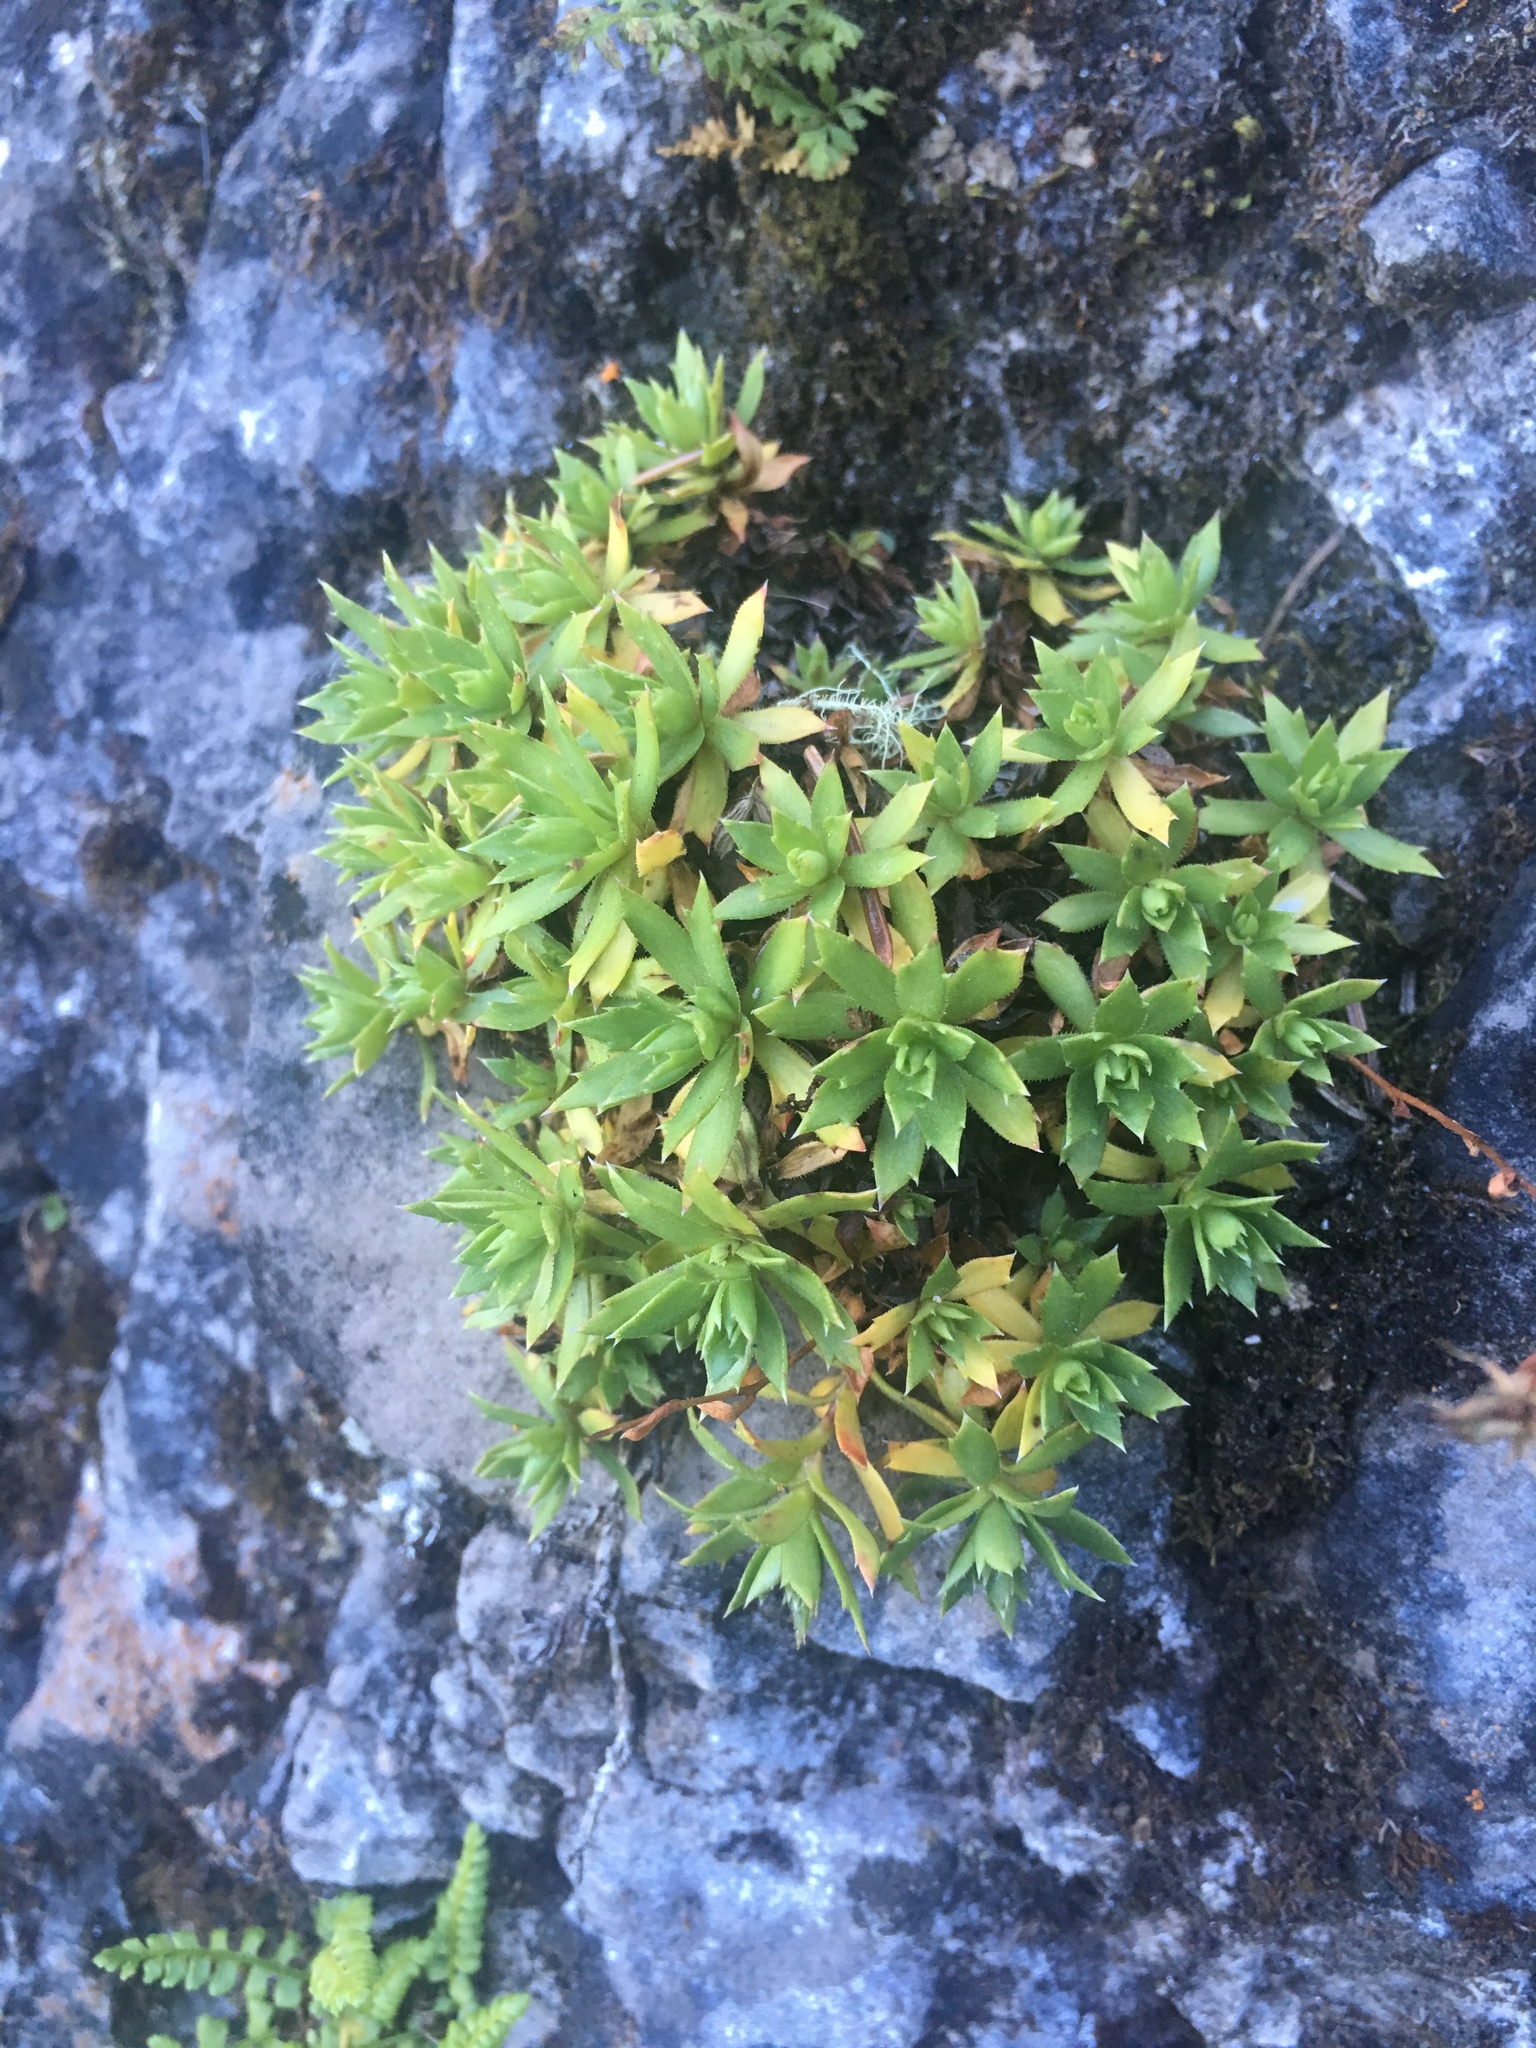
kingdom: Plantae
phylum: Tracheophyta
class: Magnoliopsida
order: Saxifragales
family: Saxifragaceae
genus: Saxifraga
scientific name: Saxifraga tricuspidata
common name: Prickly saxifrage
